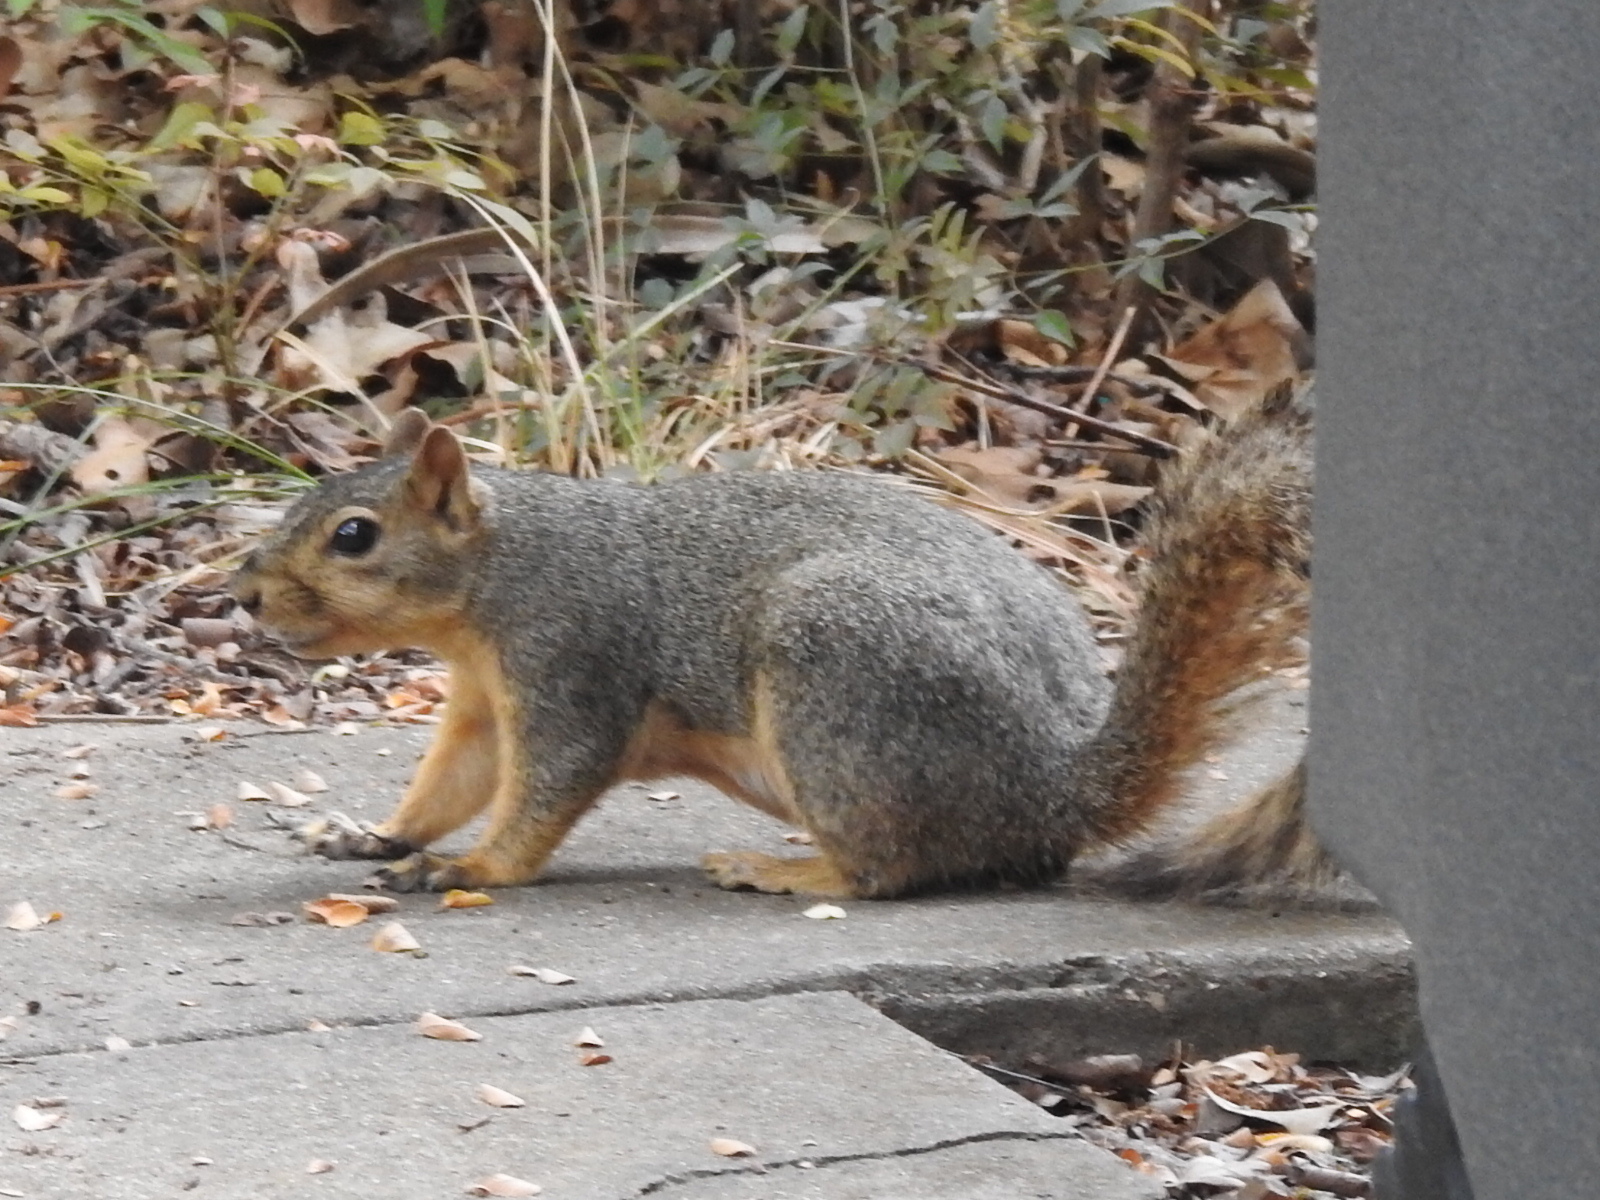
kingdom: Animalia
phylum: Chordata
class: Mammalia
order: Rodentia
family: Sciuridae
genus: Sciurus
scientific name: Sciurus niger
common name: Fox squirrel
